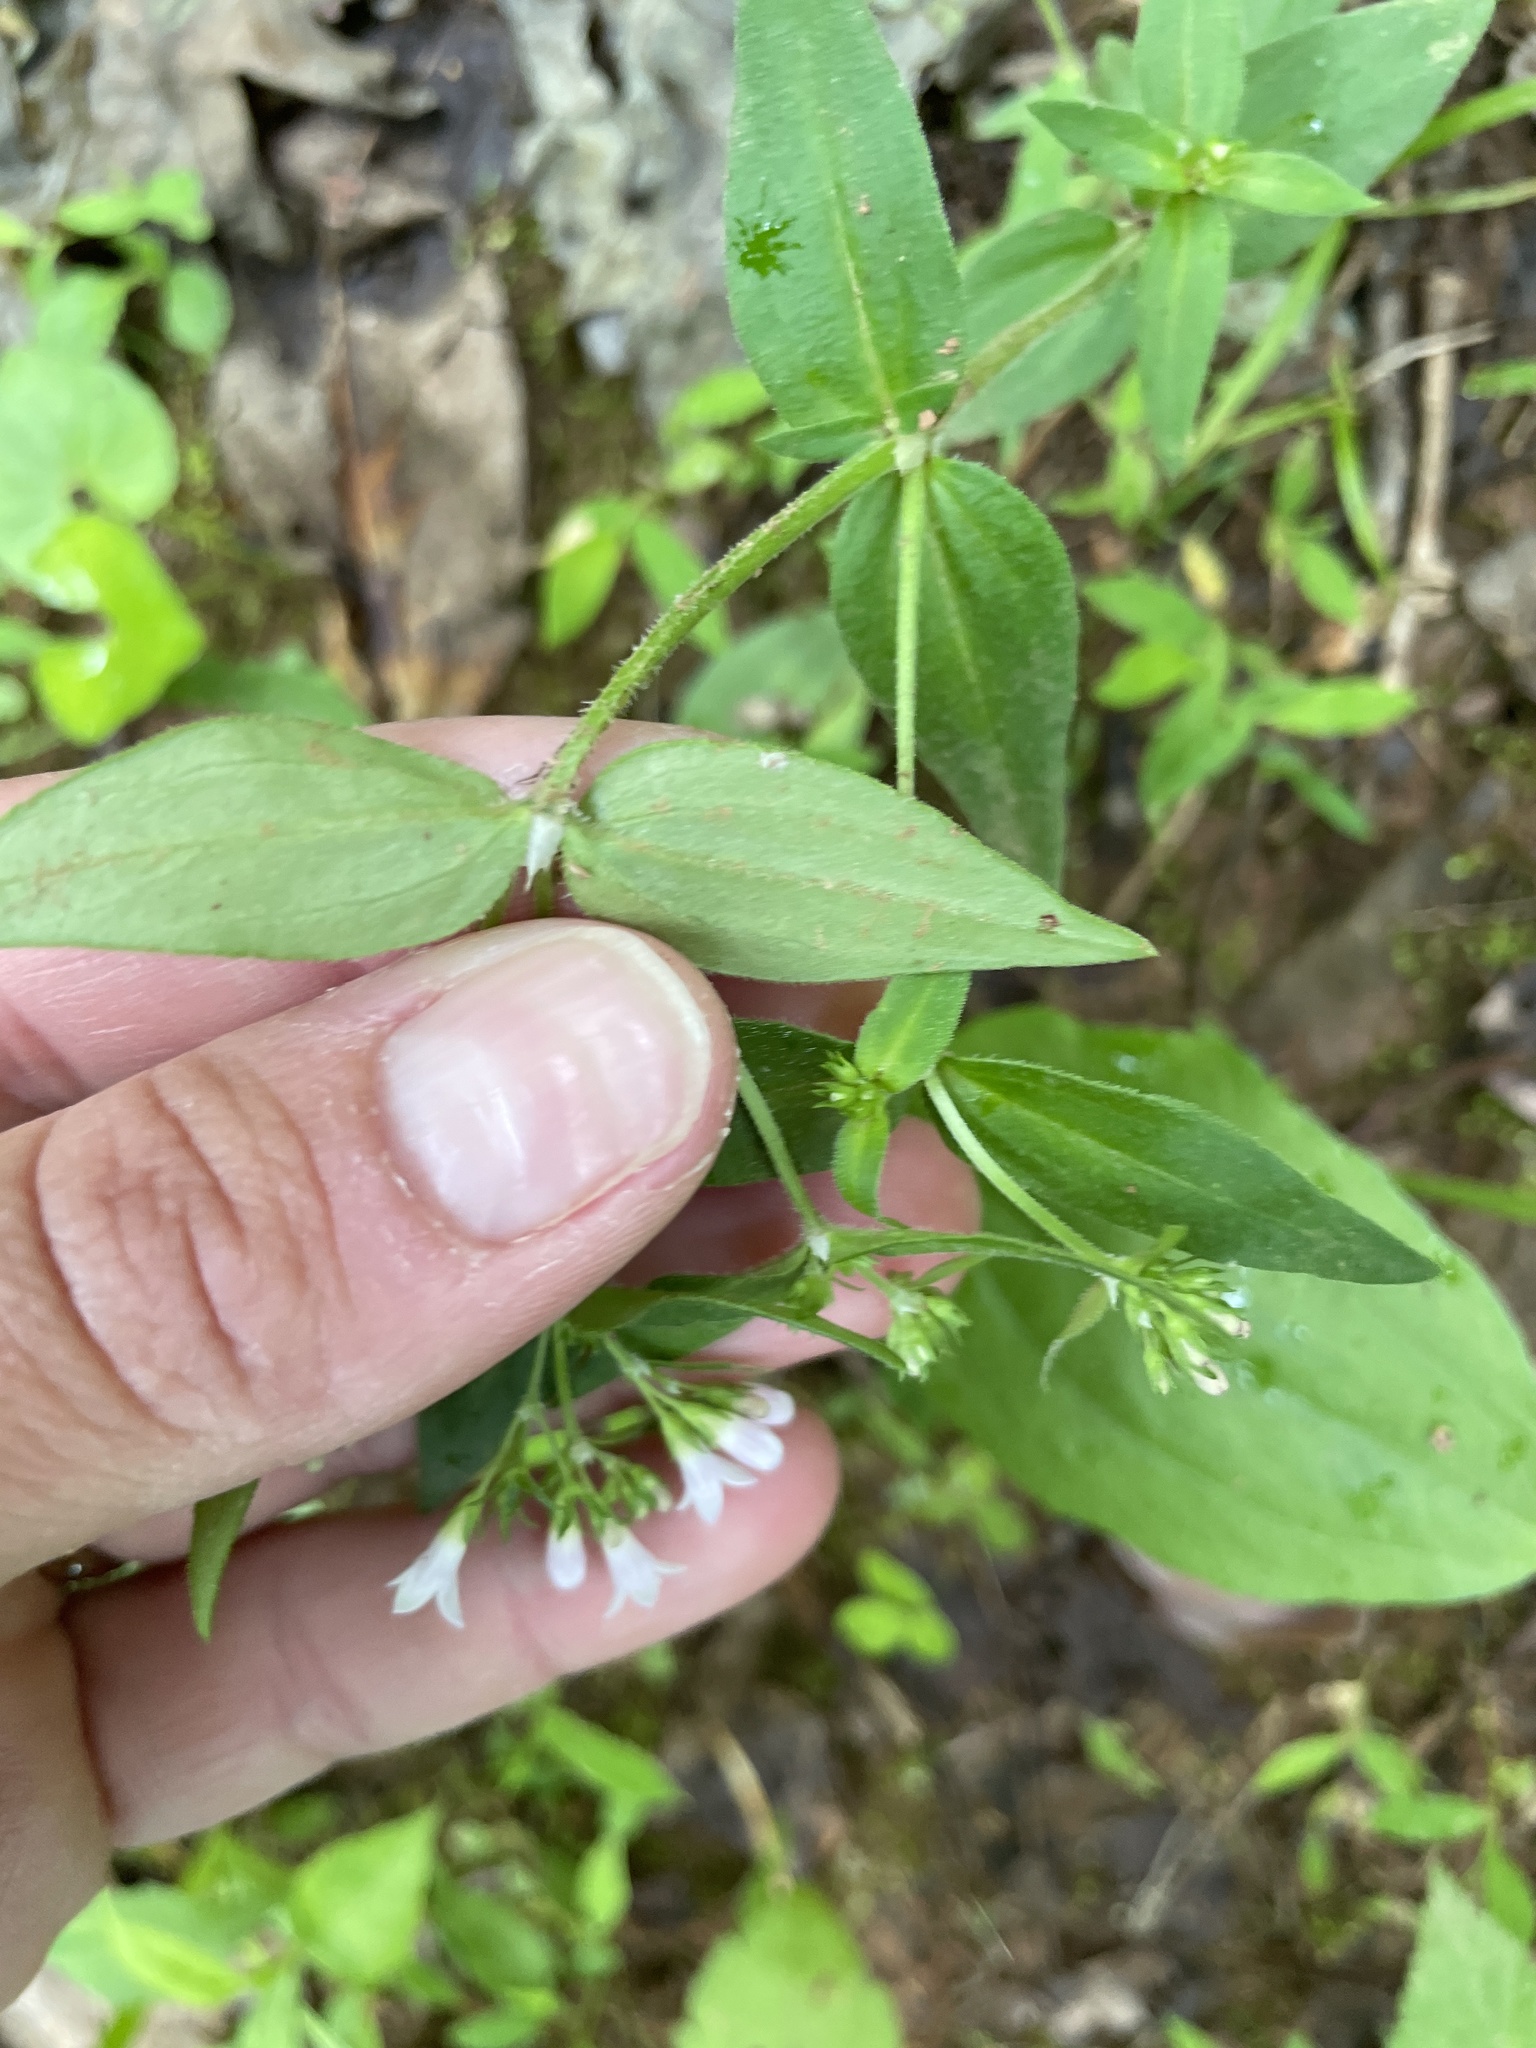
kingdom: Plantae
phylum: Tracheophyta
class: Magnoliopsida
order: Gentianales
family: Rubiaceae
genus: Houstonia
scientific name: Houstonia purpurea
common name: Summer bluet
